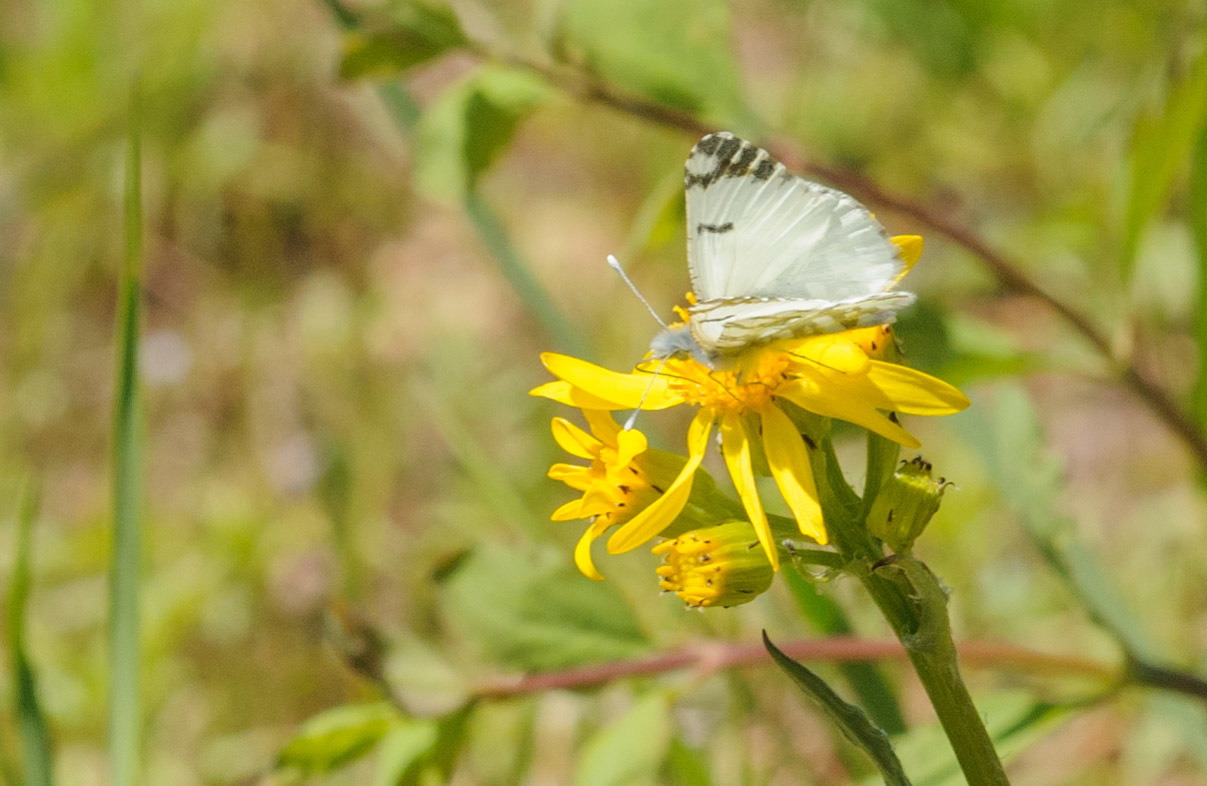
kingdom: Animalia
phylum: Arthropoda
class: Insecta
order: Lepidoptera
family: Pieridae
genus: Euchloe
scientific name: Euchloe ausonides
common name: Creamy marblewing
